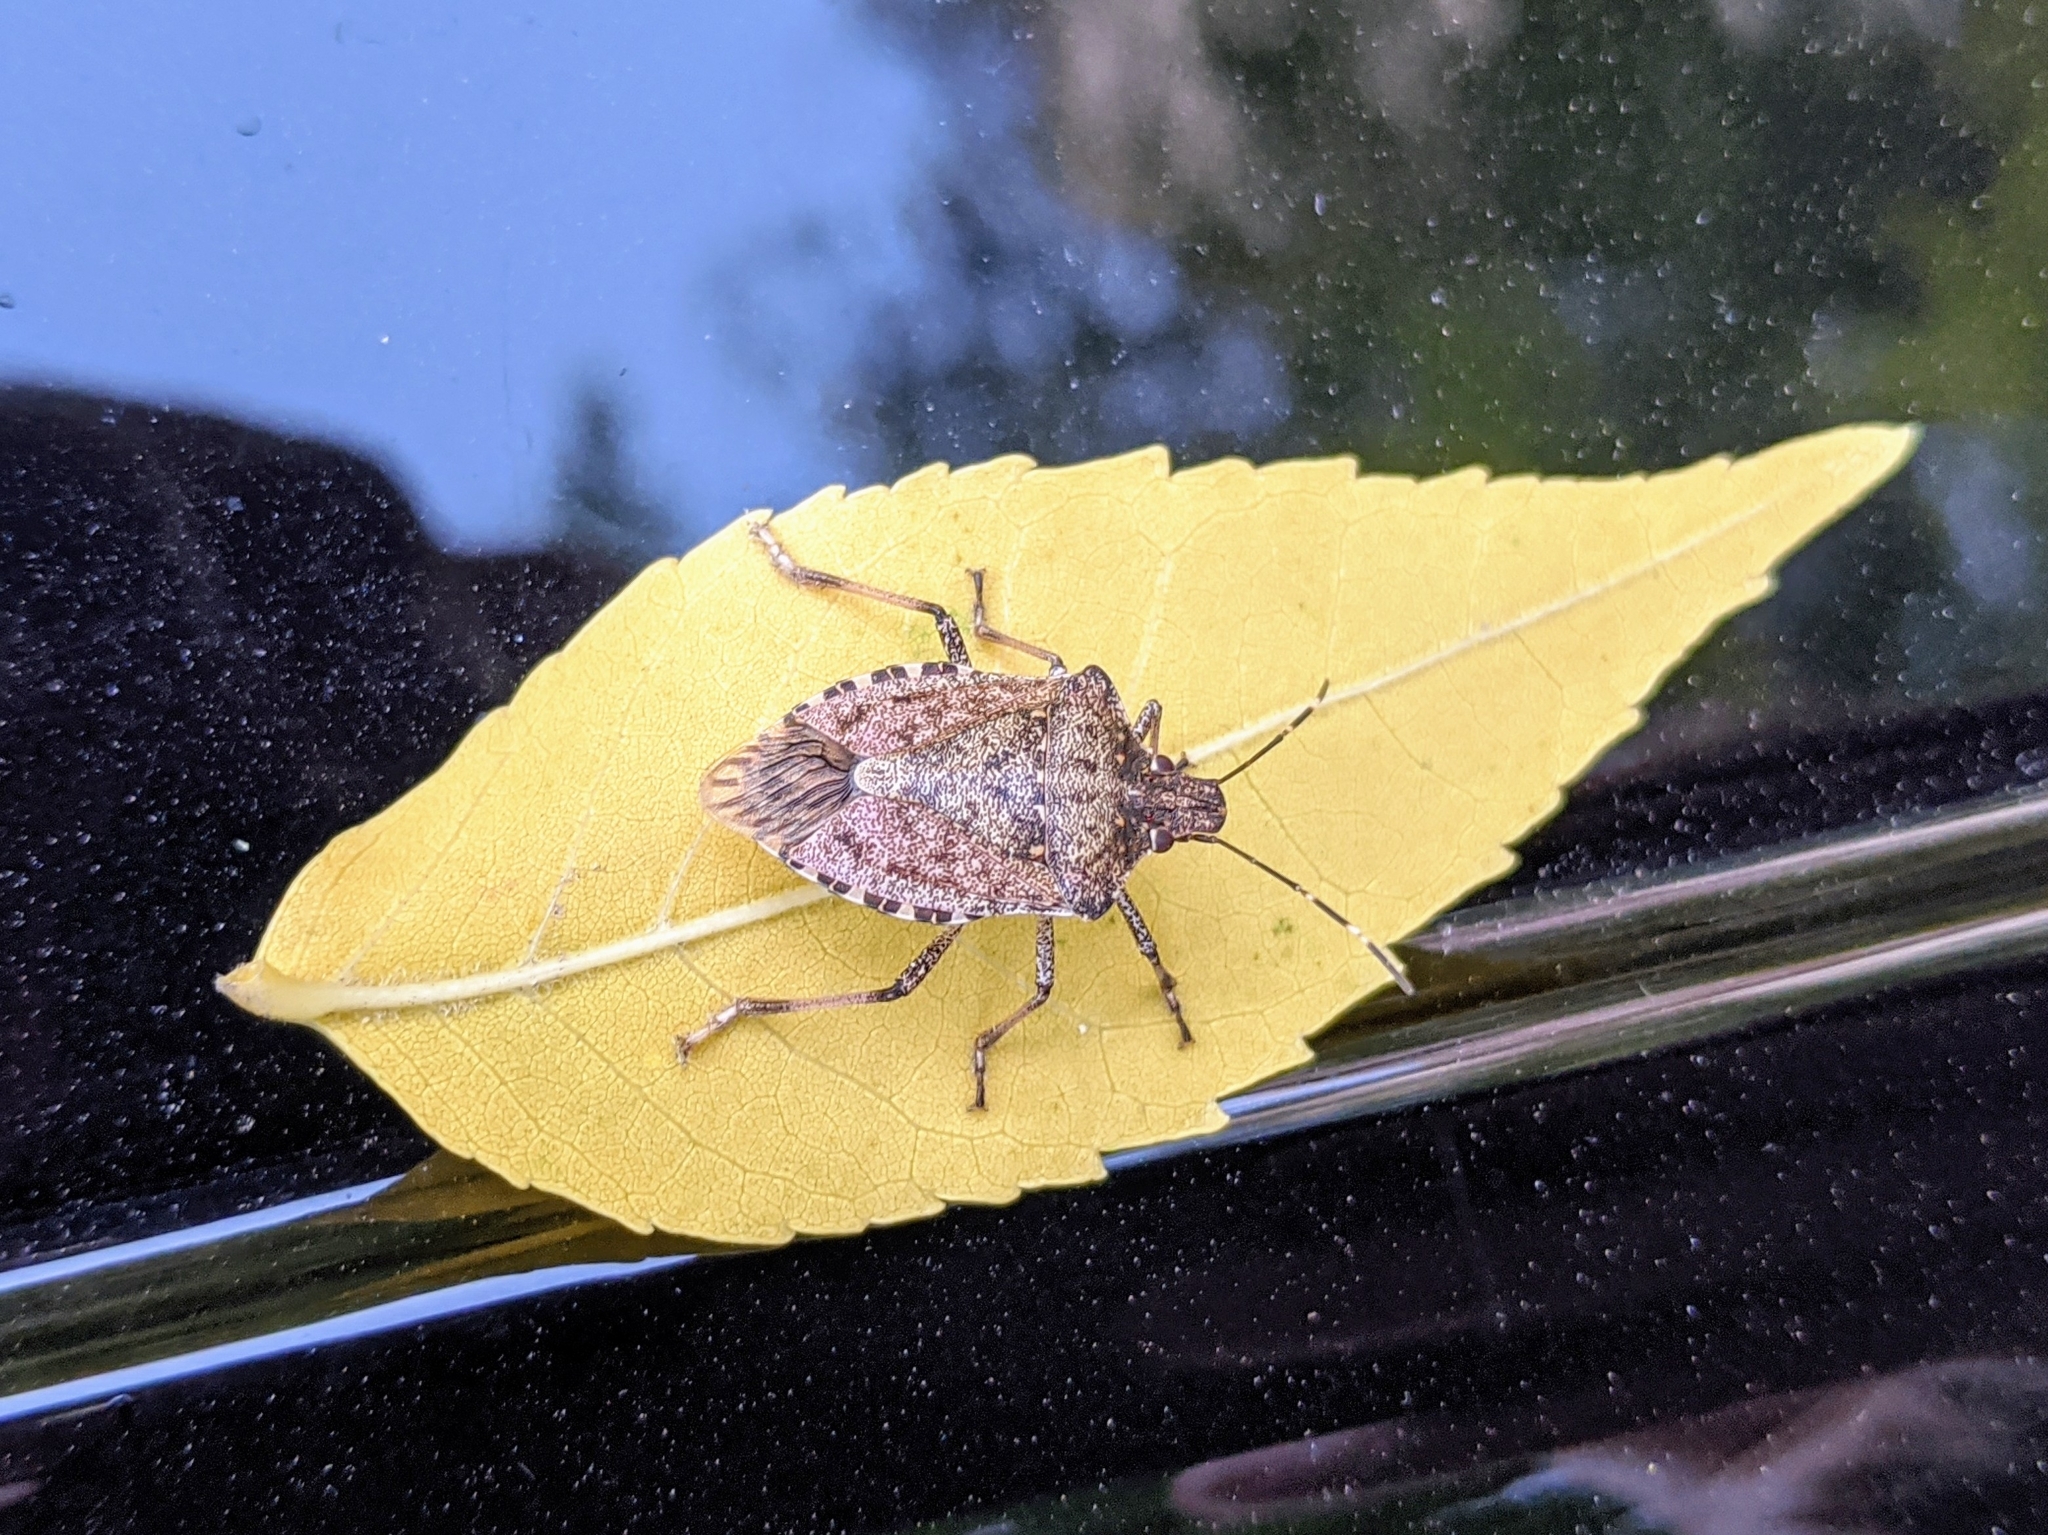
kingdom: Animalia
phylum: Arthropoda
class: Insecta
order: Hemiptera
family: Pentatomidae
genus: Halyomorpha
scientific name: Halyomorpha halys
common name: Brown marmorated stink bug
